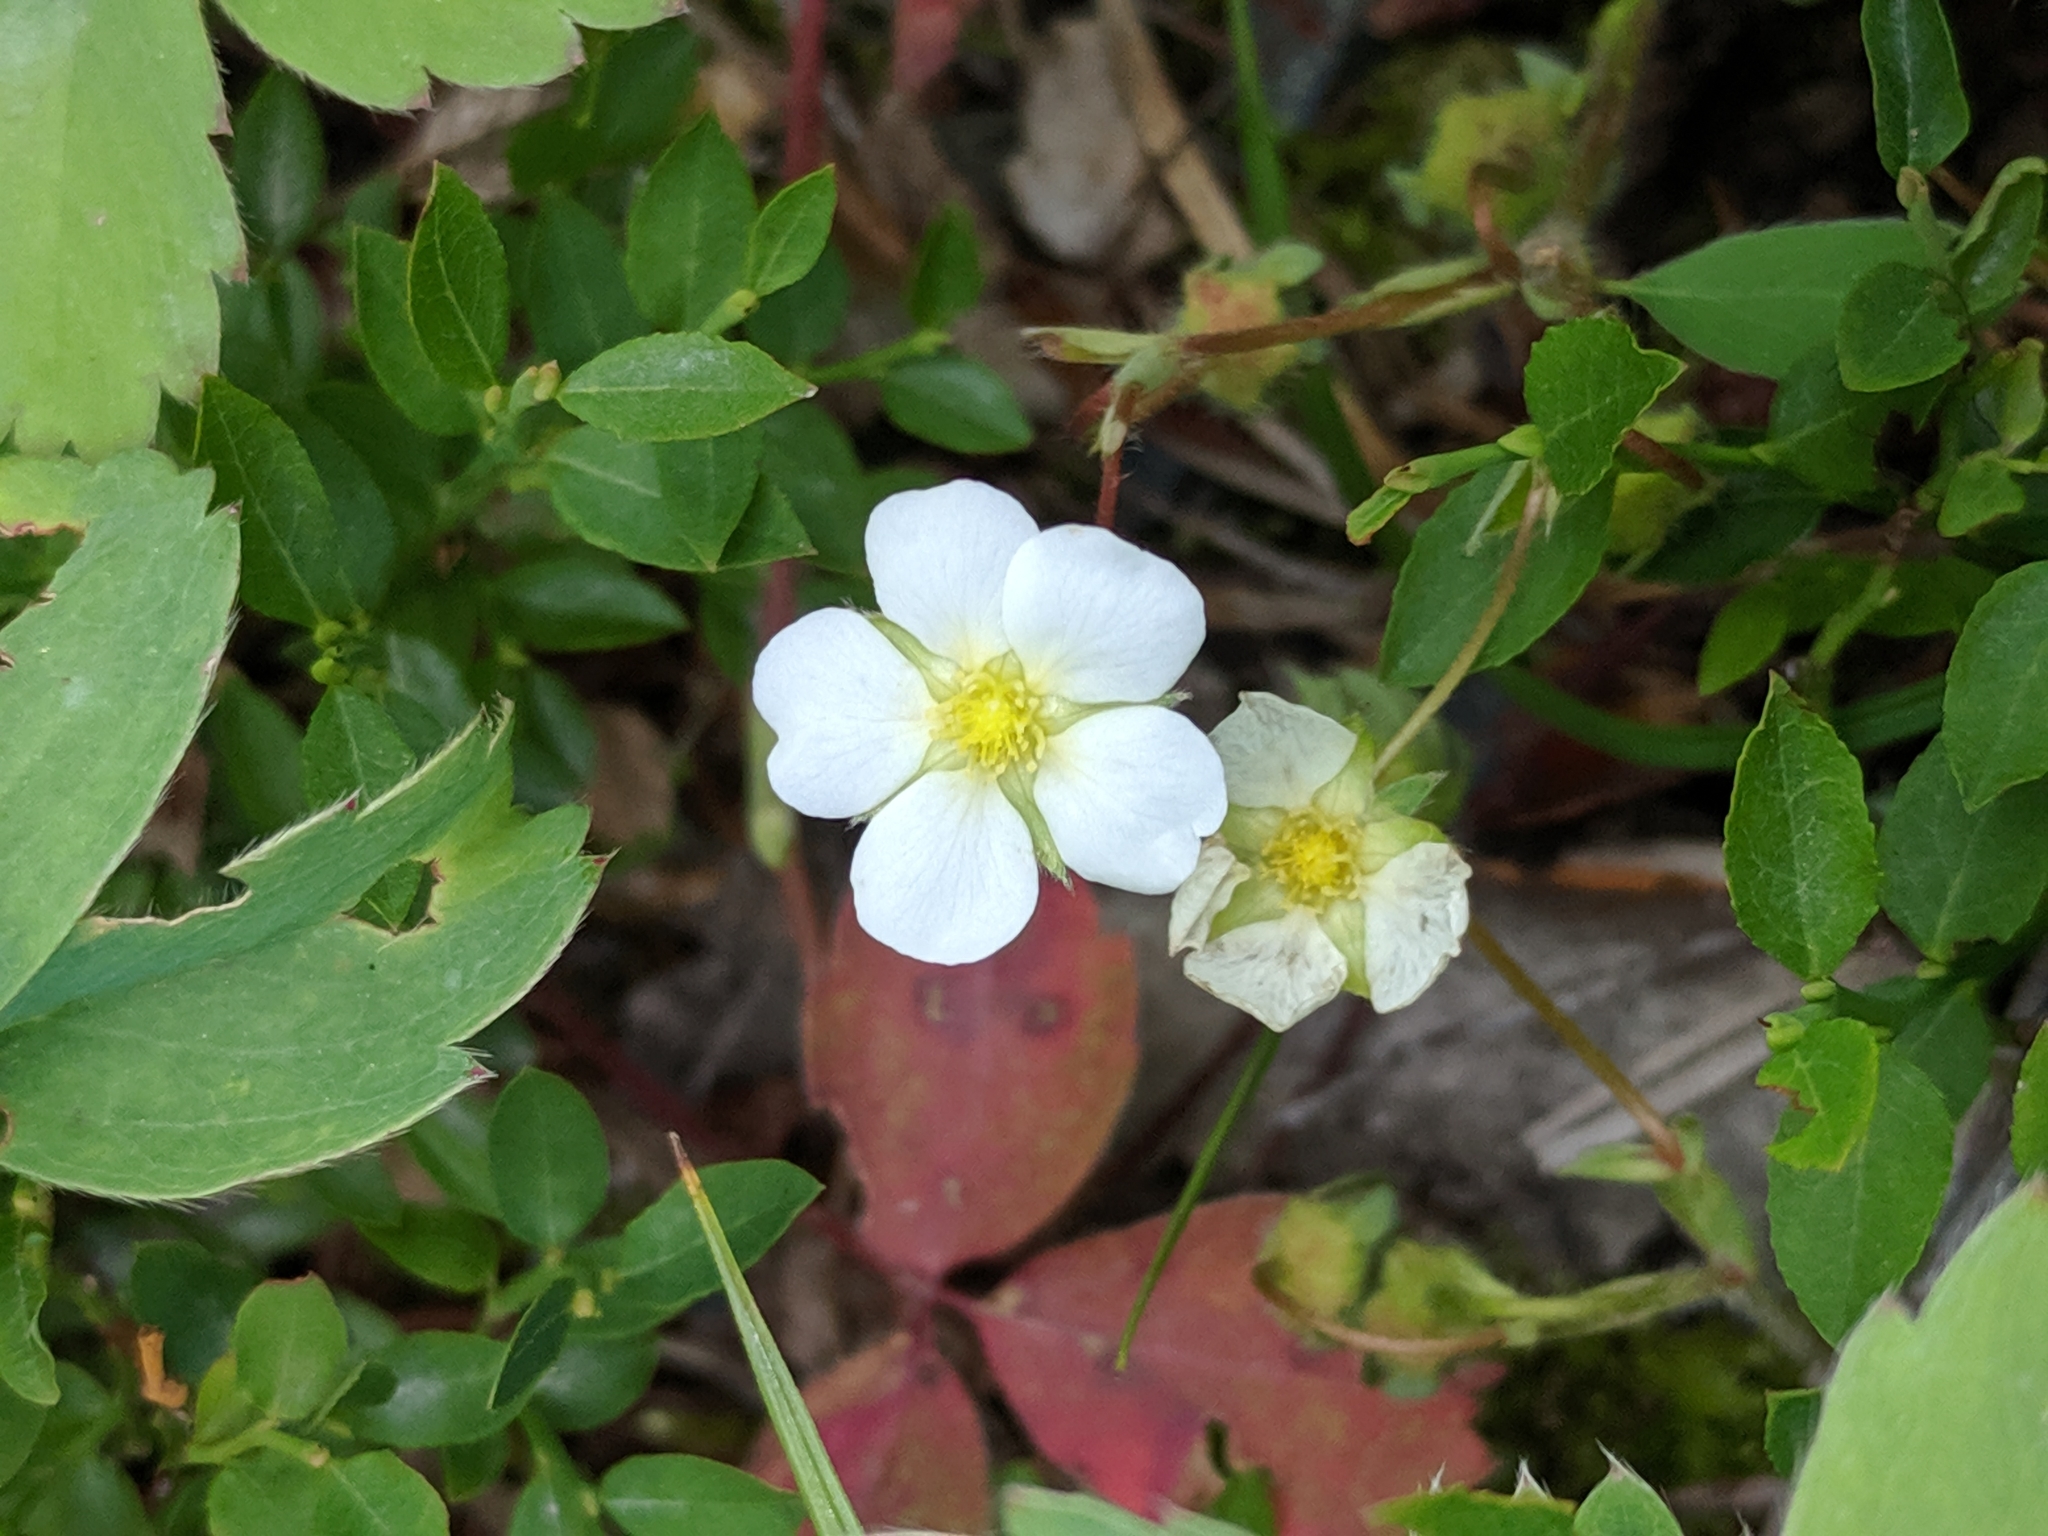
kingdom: Plantae
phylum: Tracheophyta
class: Magnoliopsida
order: Rosales
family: Rosaceae
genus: Fragaria
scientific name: Fragaria virginiana
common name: Thickleaved wild strawberry
